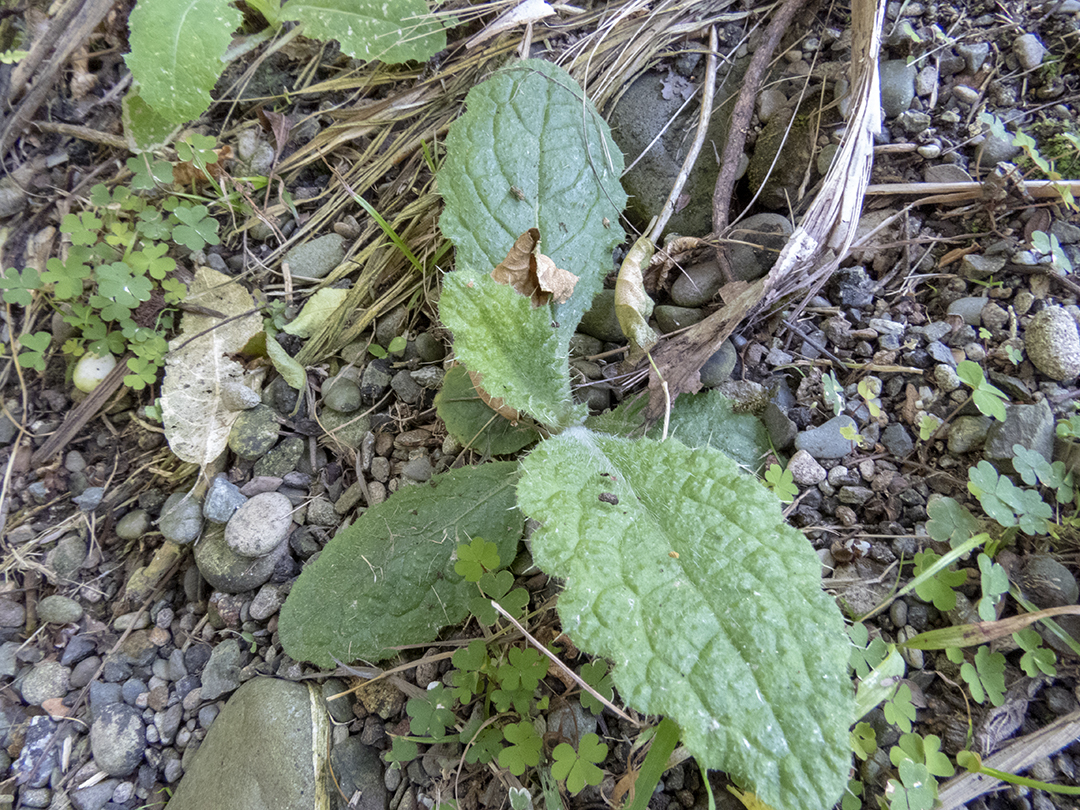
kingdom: Plantae
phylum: Tracheophyta
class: Magnoliopsida
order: Asterales
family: Asteraceae
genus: Cirsium
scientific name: Cirsium vulgare
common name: Bull thistle
